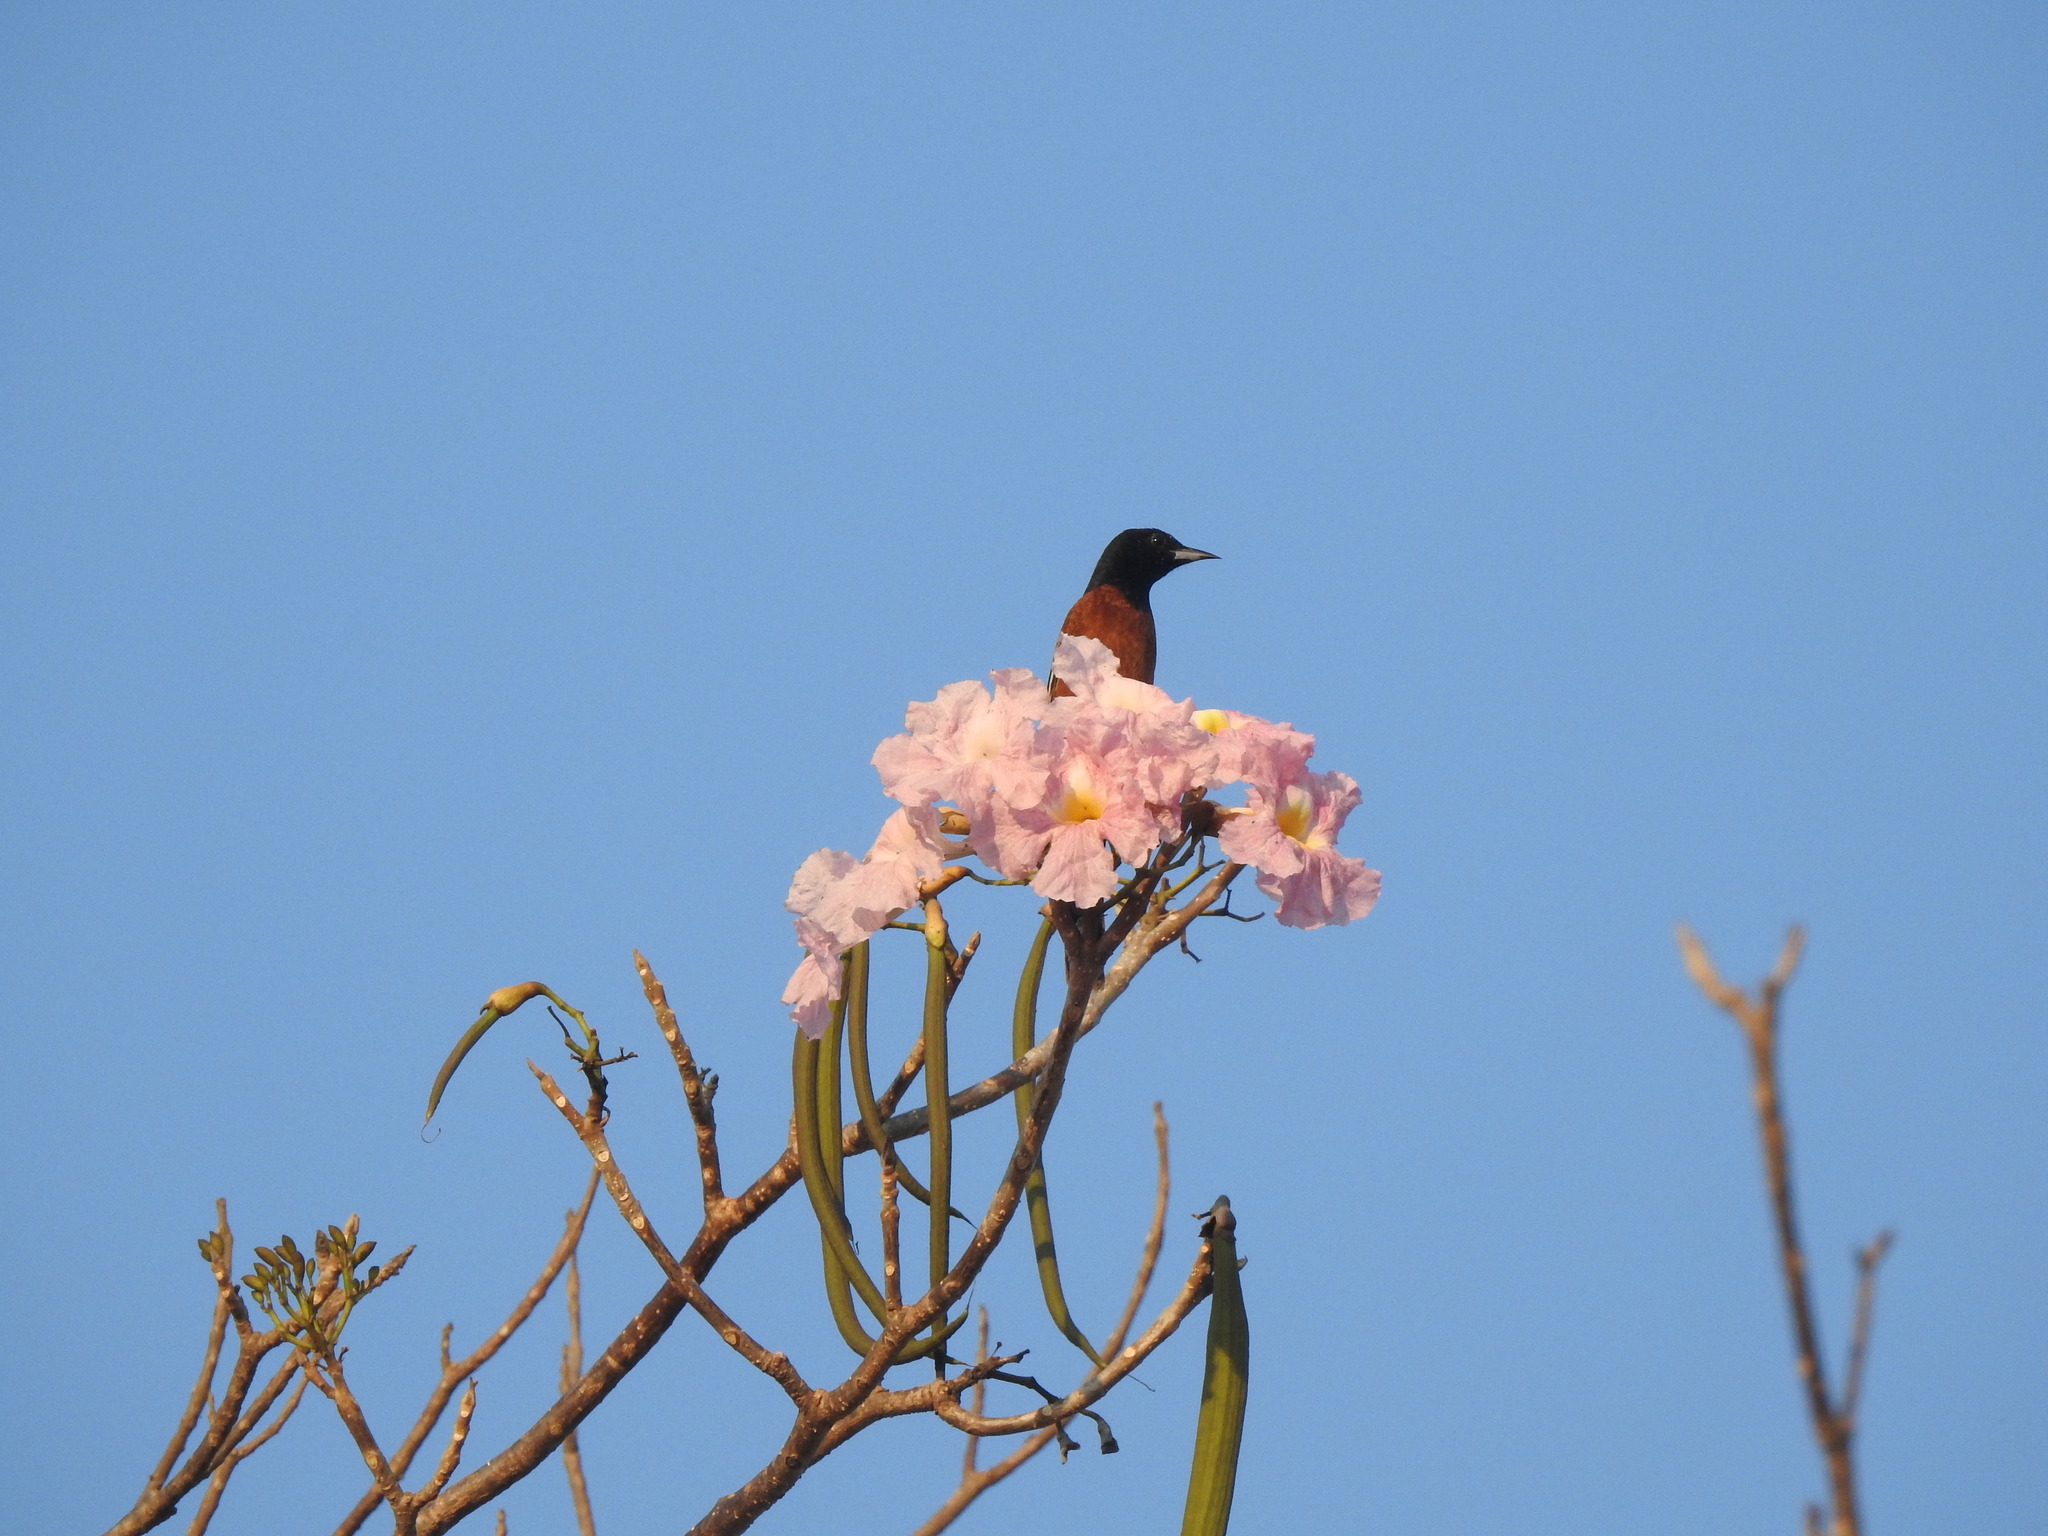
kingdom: Animalia
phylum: Chordata
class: Aves
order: Passeriformes
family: Icteridae
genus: Icterus
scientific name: Icterus spurius
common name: Orchard oriole
